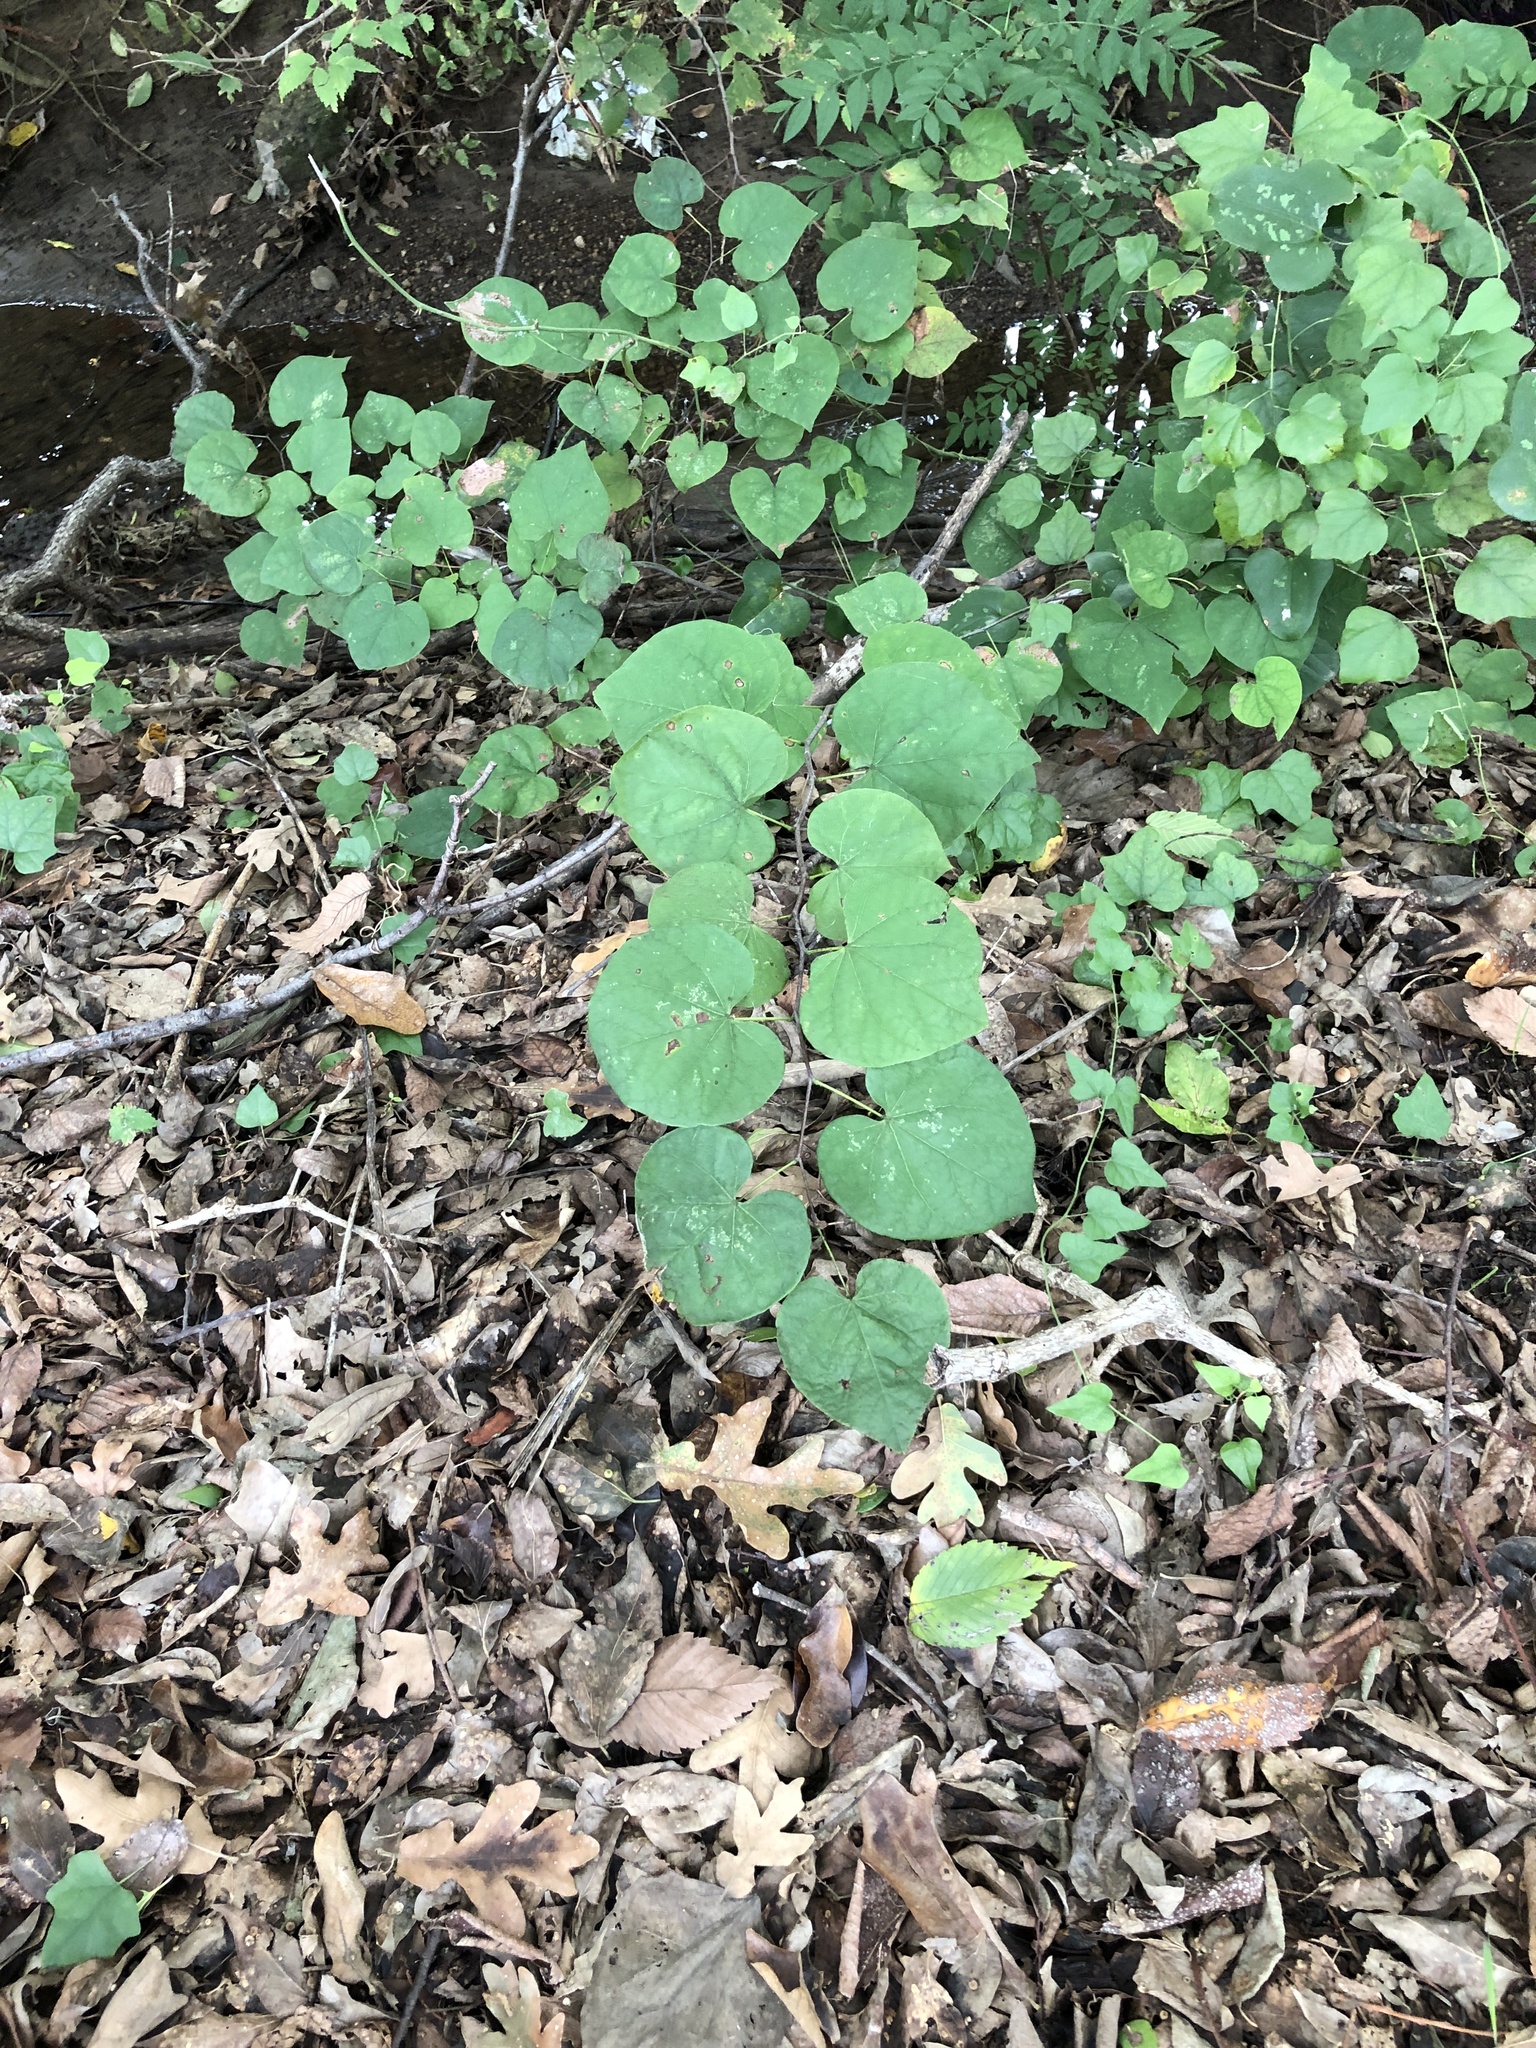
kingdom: Plantae
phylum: Tracheophyta
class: Magnoliopsida
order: Fabales
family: Fabaceae
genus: Cercis
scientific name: Cercis canadensis
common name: Eastern redbud
